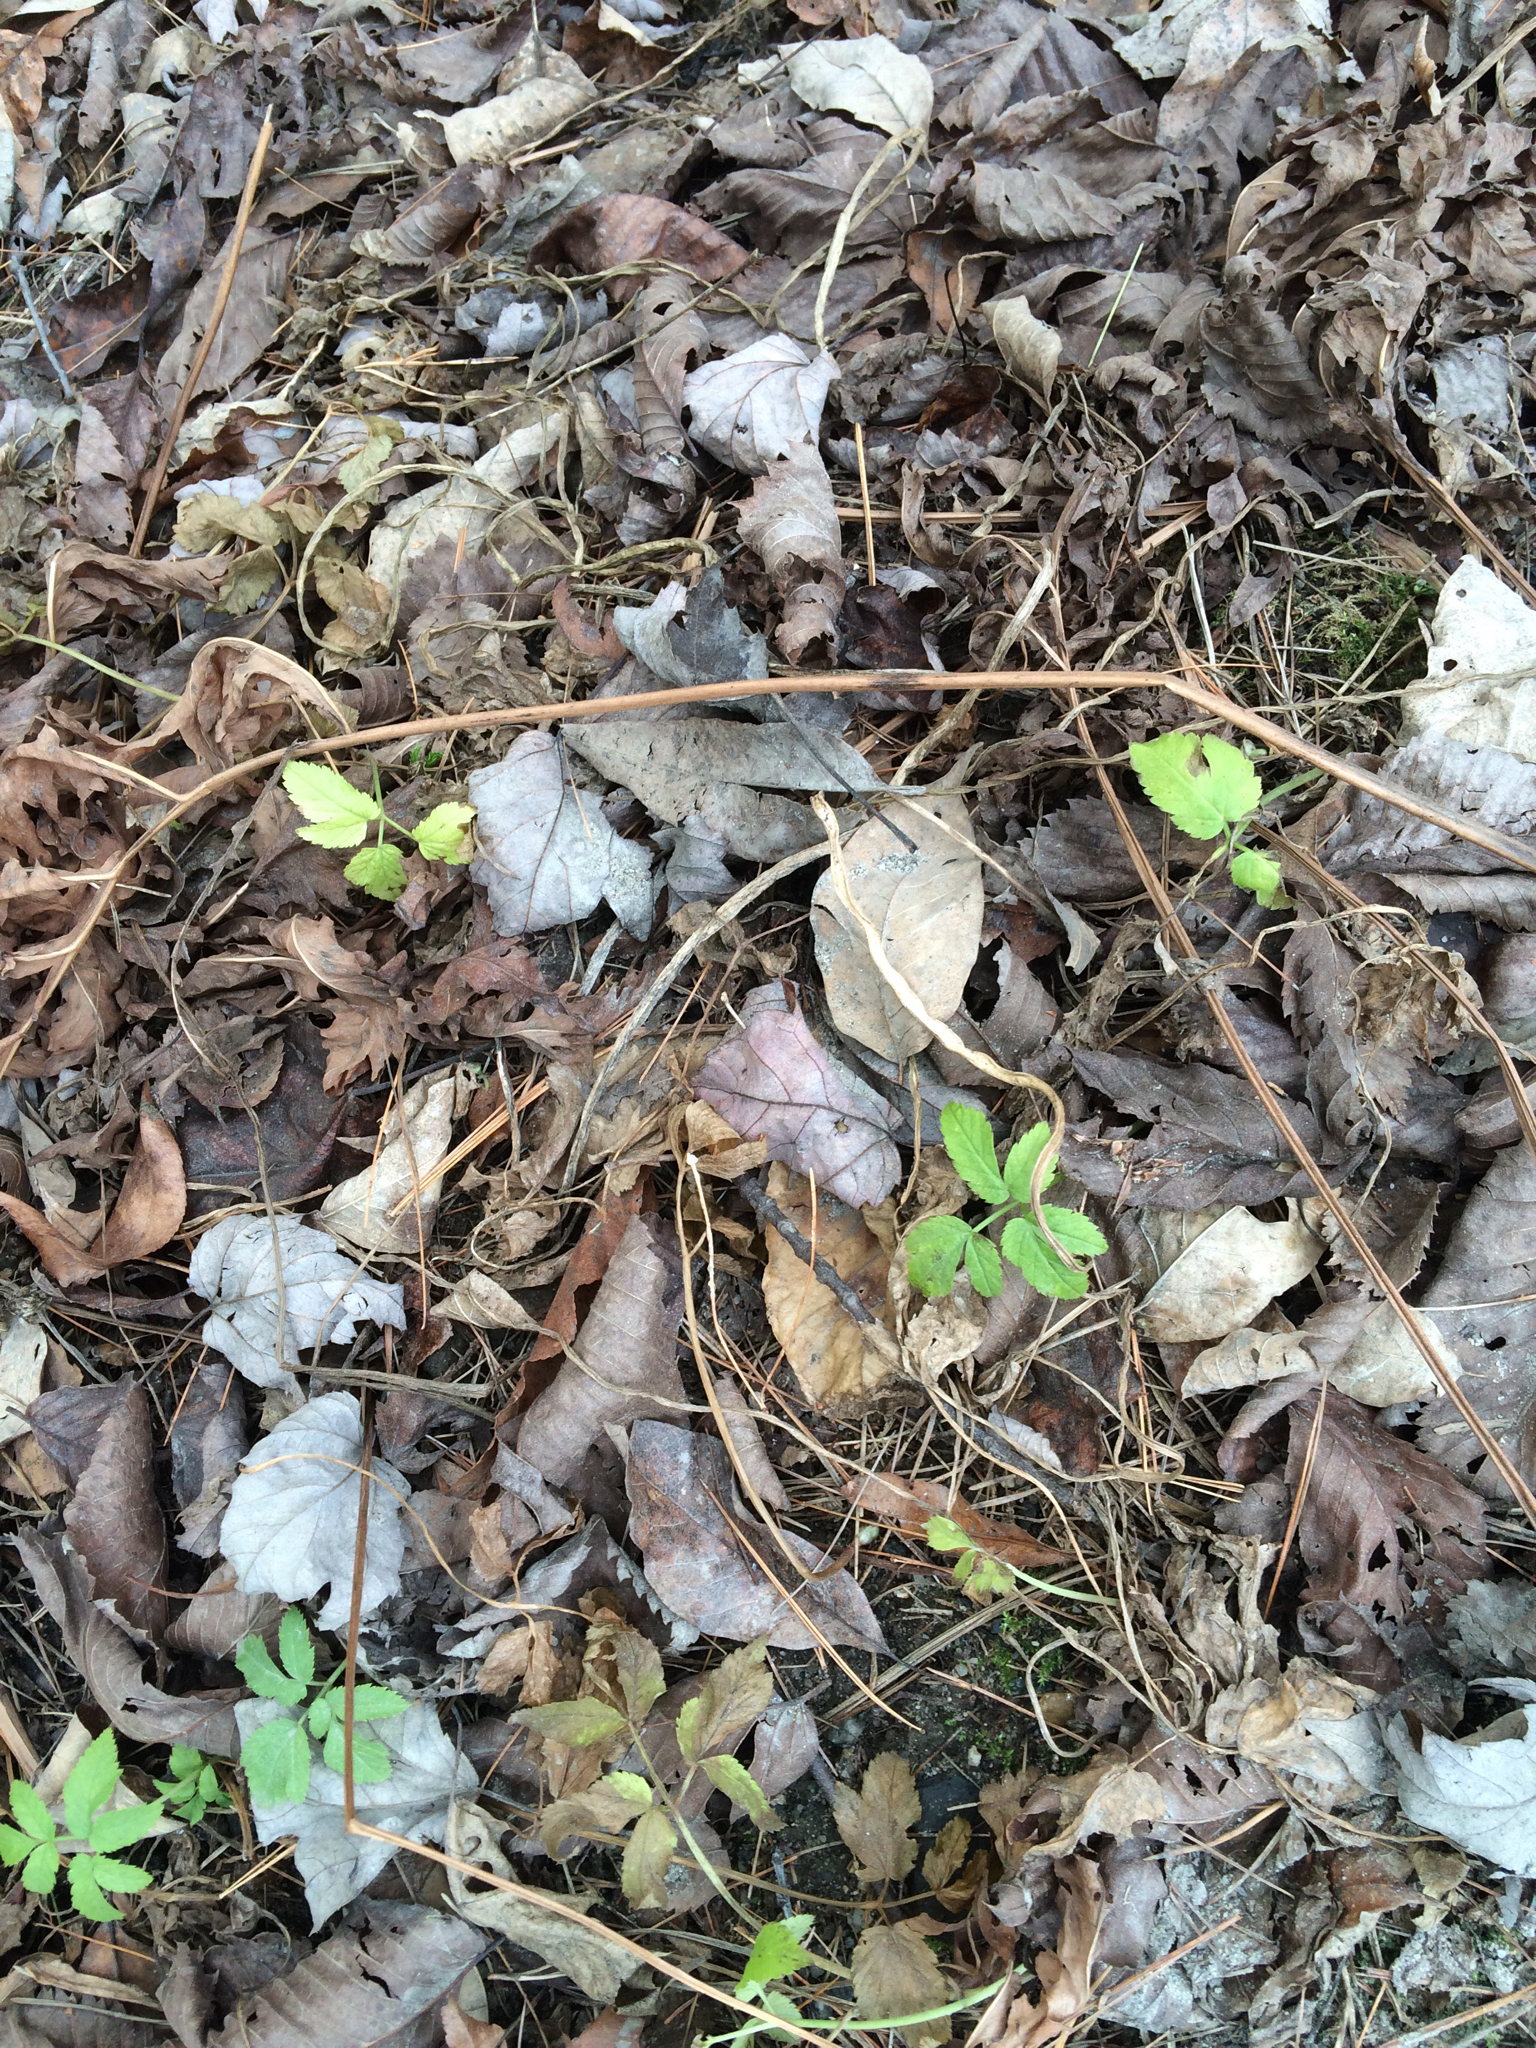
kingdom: Plantae
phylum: Tracheophyta
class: Magnoliopsida
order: Apiales
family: Apiaceae
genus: Aegopodium
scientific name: Aegopodium podagraria
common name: Ground-elder
